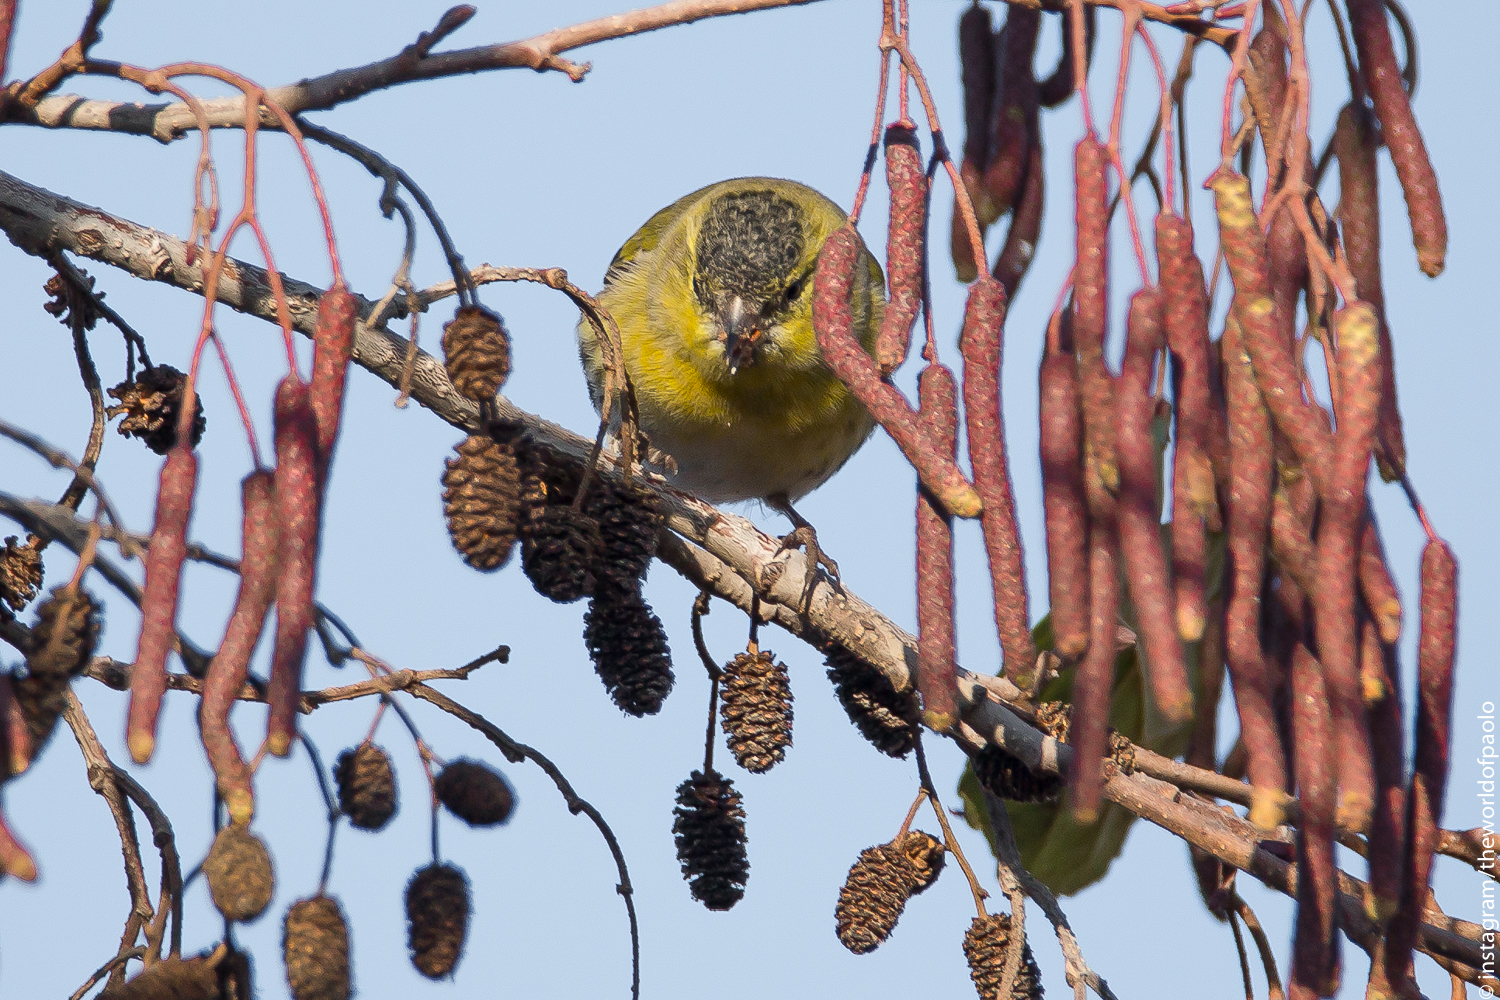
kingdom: Animalia
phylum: Chordata
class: Aves
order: Passeriformes
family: Fringillidae
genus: Spinus
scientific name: Spinus spinus
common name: Eurasian siskin
